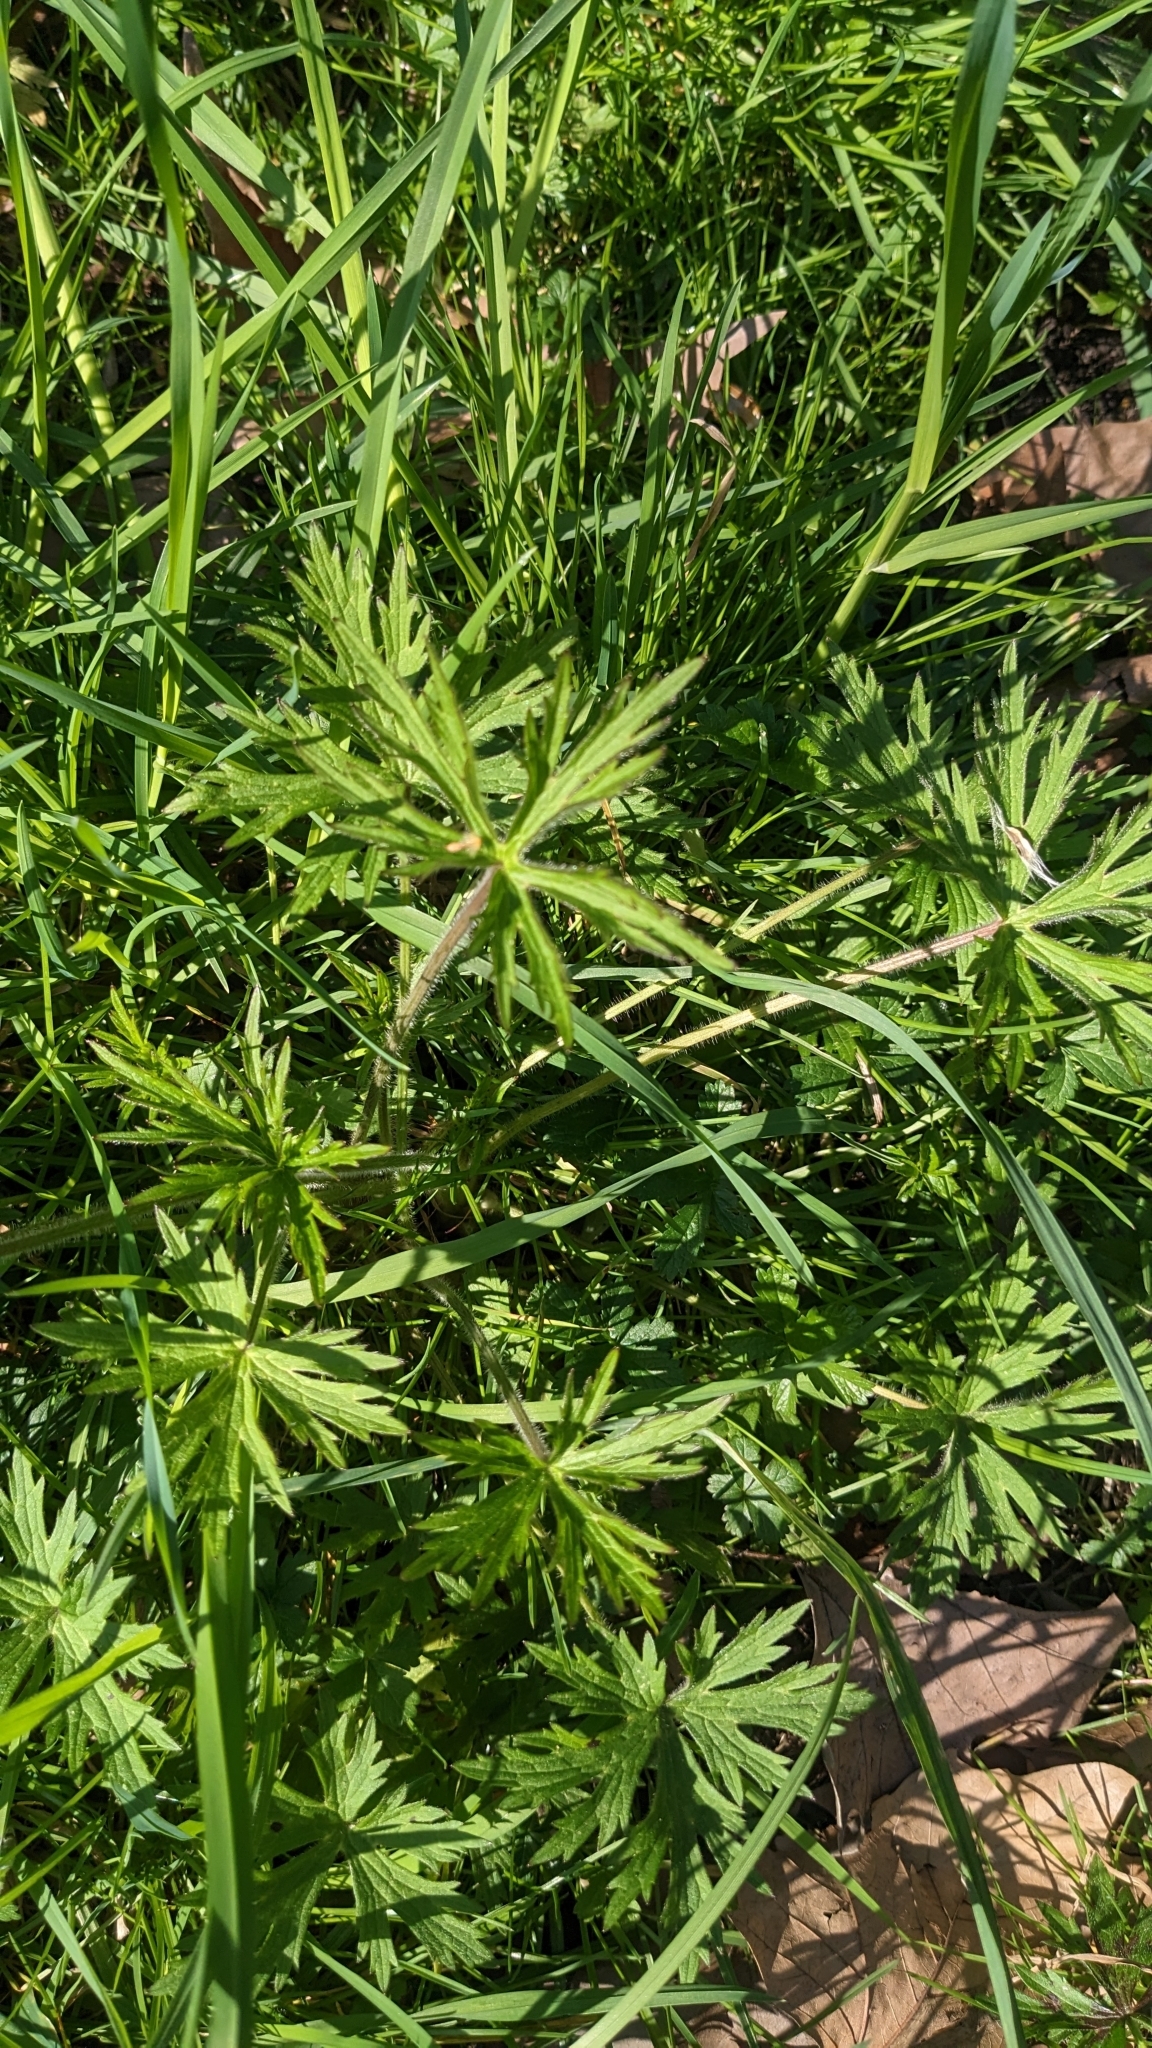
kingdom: Plantae
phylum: Tracheophyta
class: Magnoliopsida
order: Ranunculales
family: Ranunculaceae
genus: Ranunculus
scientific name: Ranunculus acris
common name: Meadow buttercup
